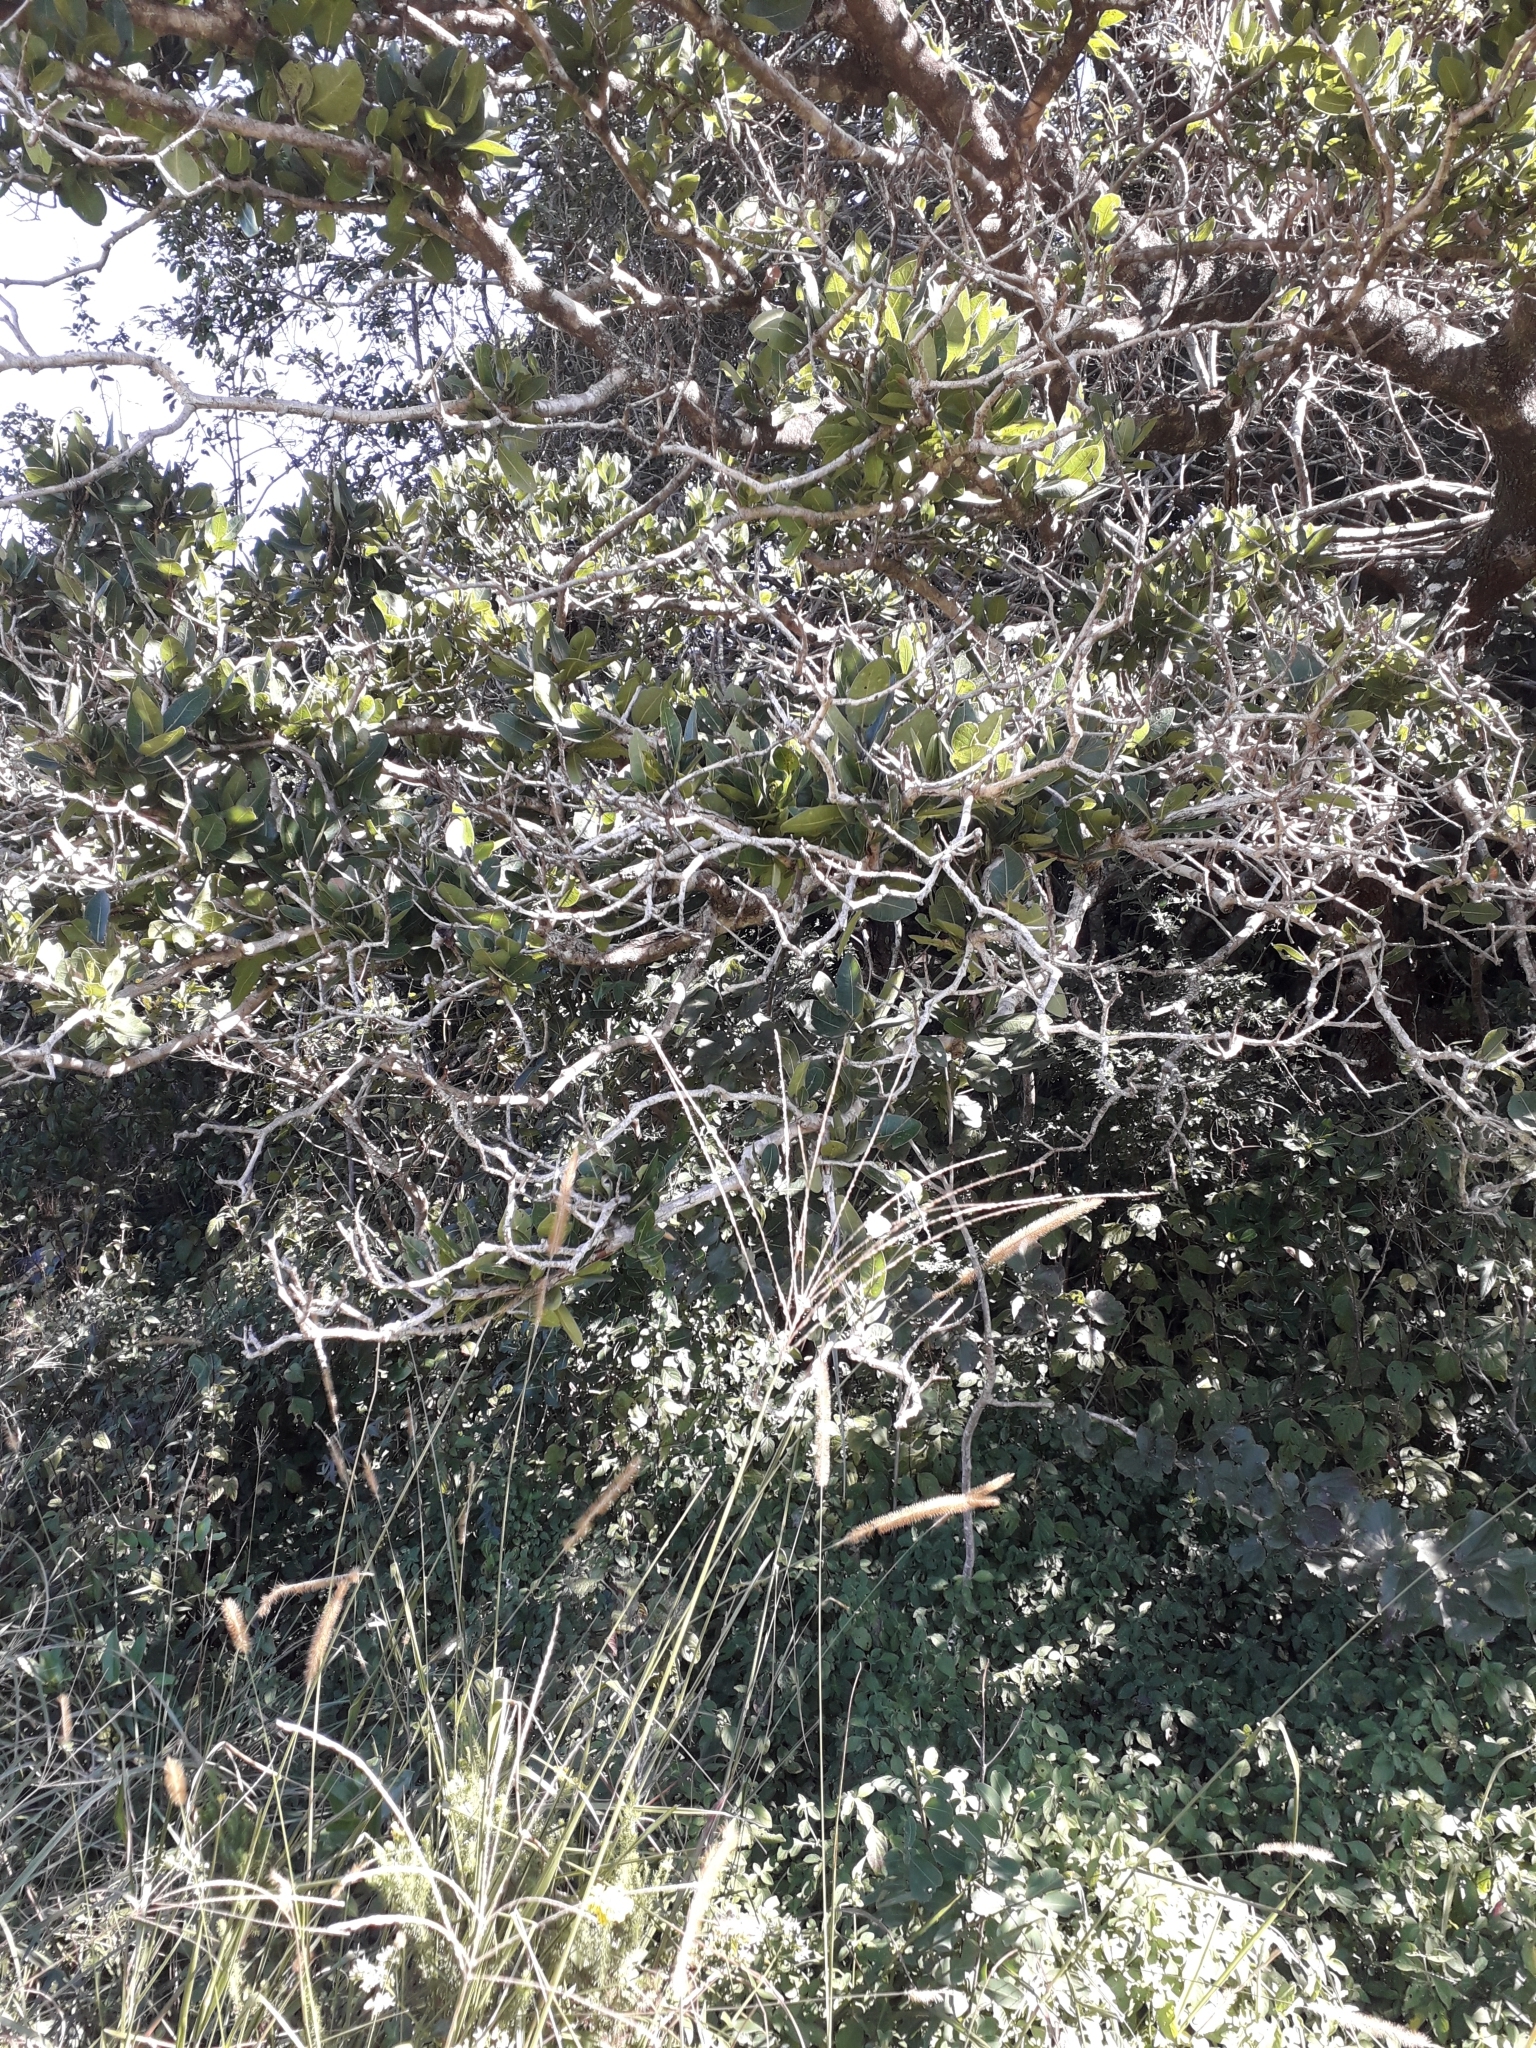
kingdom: Plantae
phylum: Tracheophyta
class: Magnoliopsida
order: Myrtales
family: Myrtaceae
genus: Syzygium
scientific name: Syzygium cordatum
